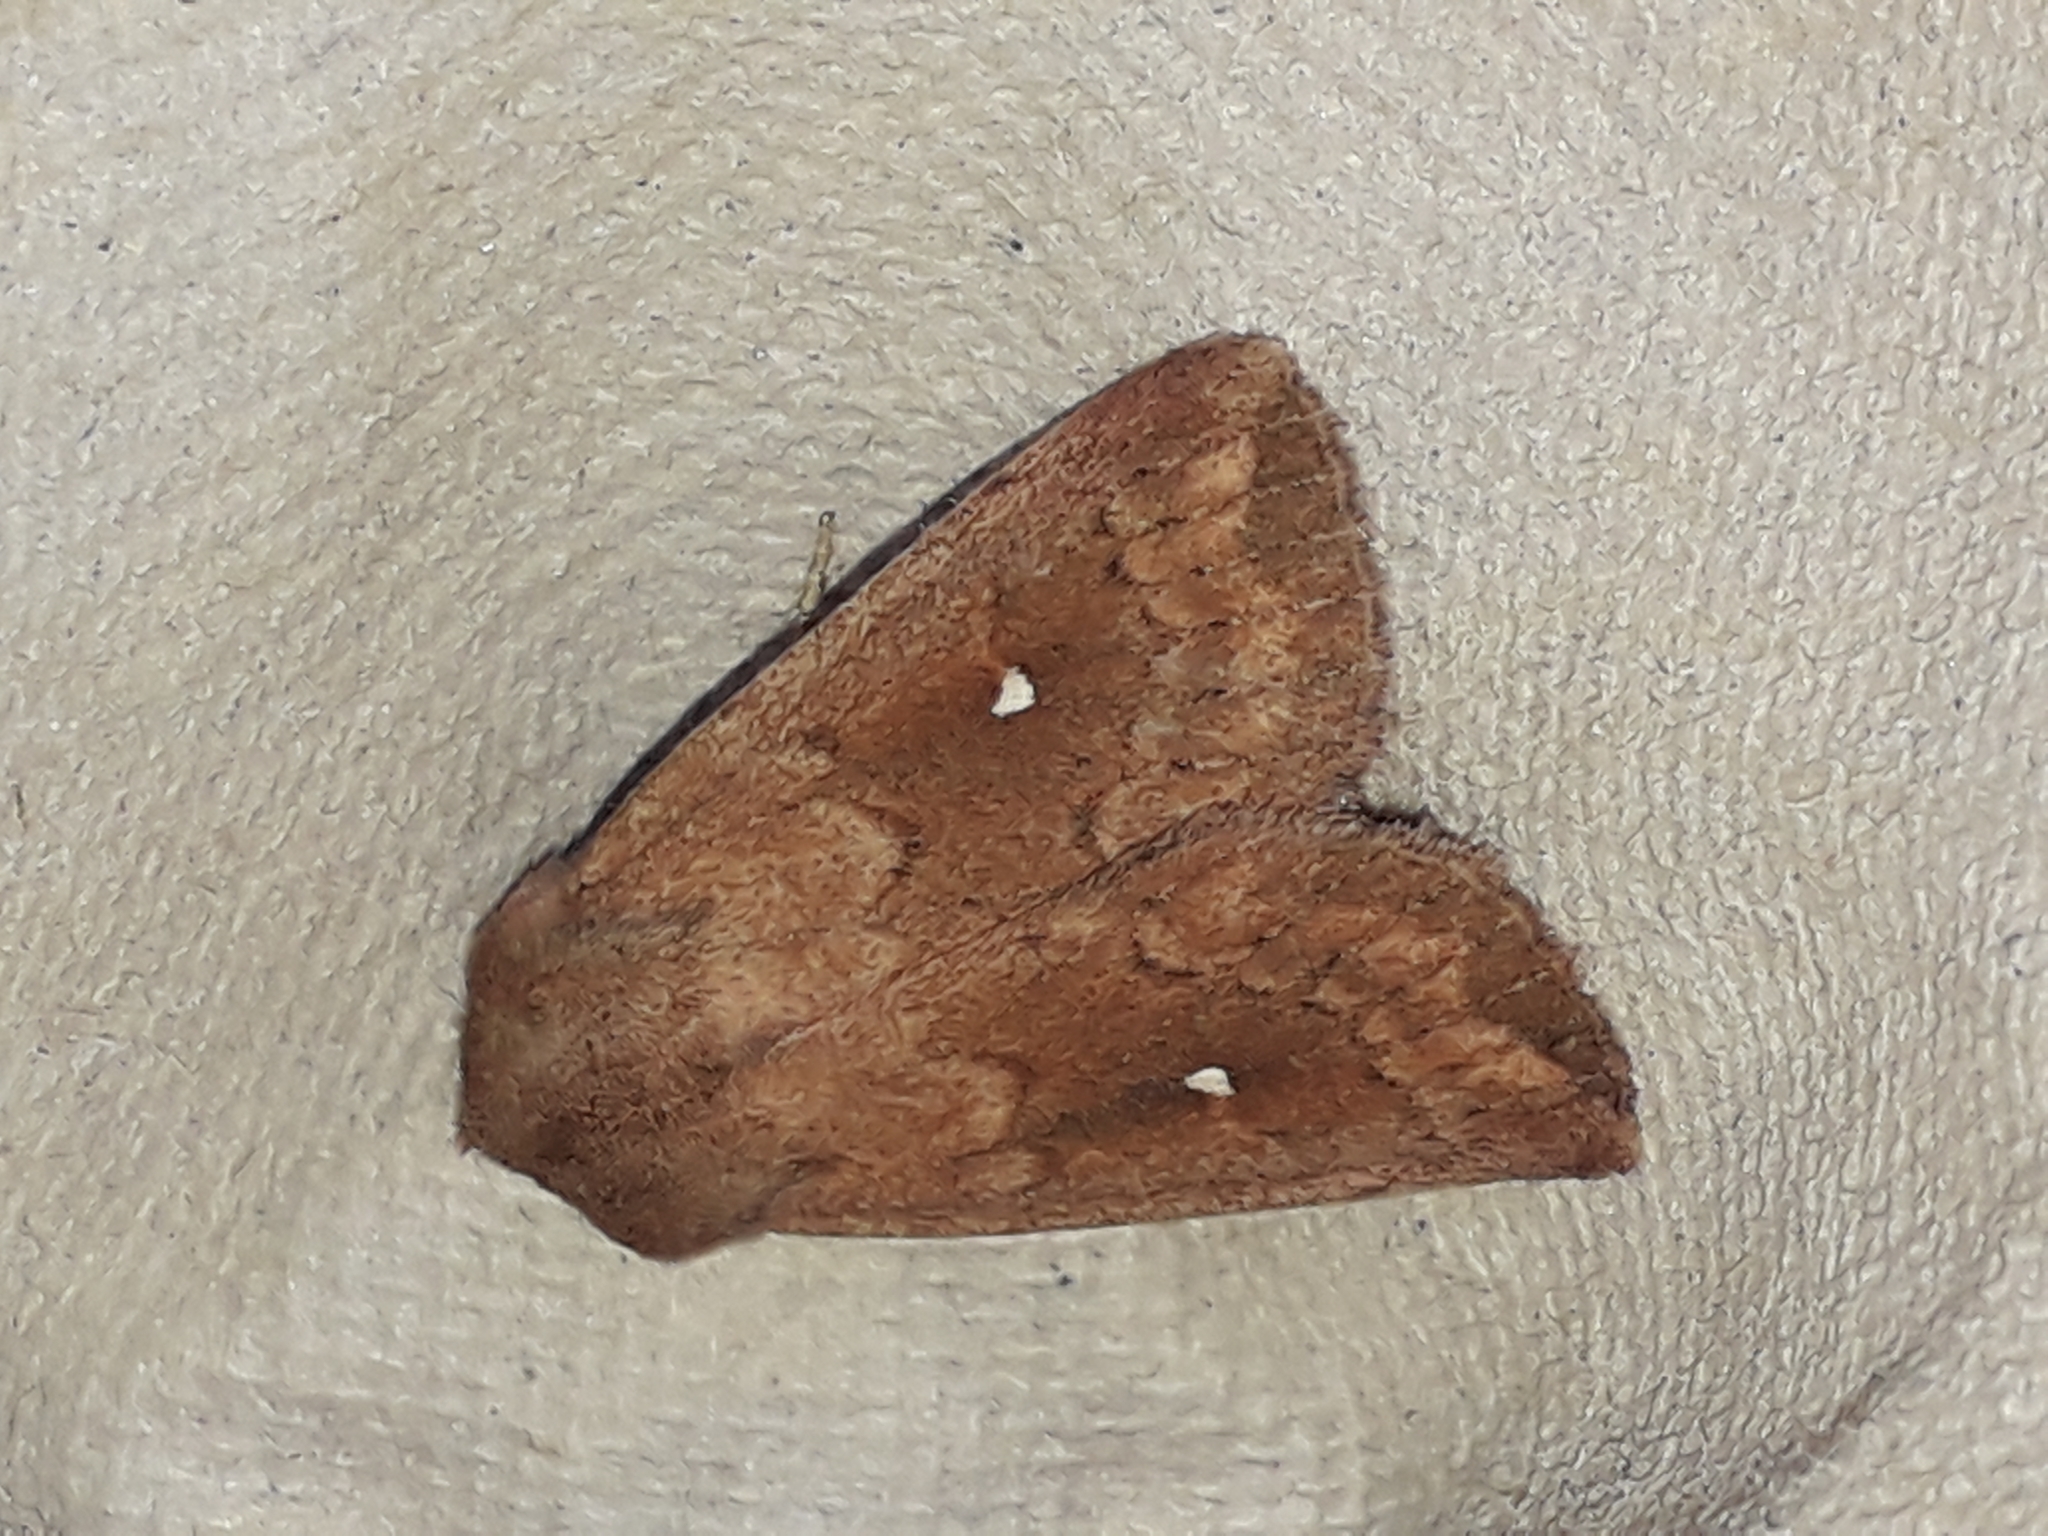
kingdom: Animalia
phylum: Arthropoda
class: Insecta
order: Lepidoptera
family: Noctuidae
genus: Mythimna
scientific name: Mythimna albipuncta
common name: White-point
